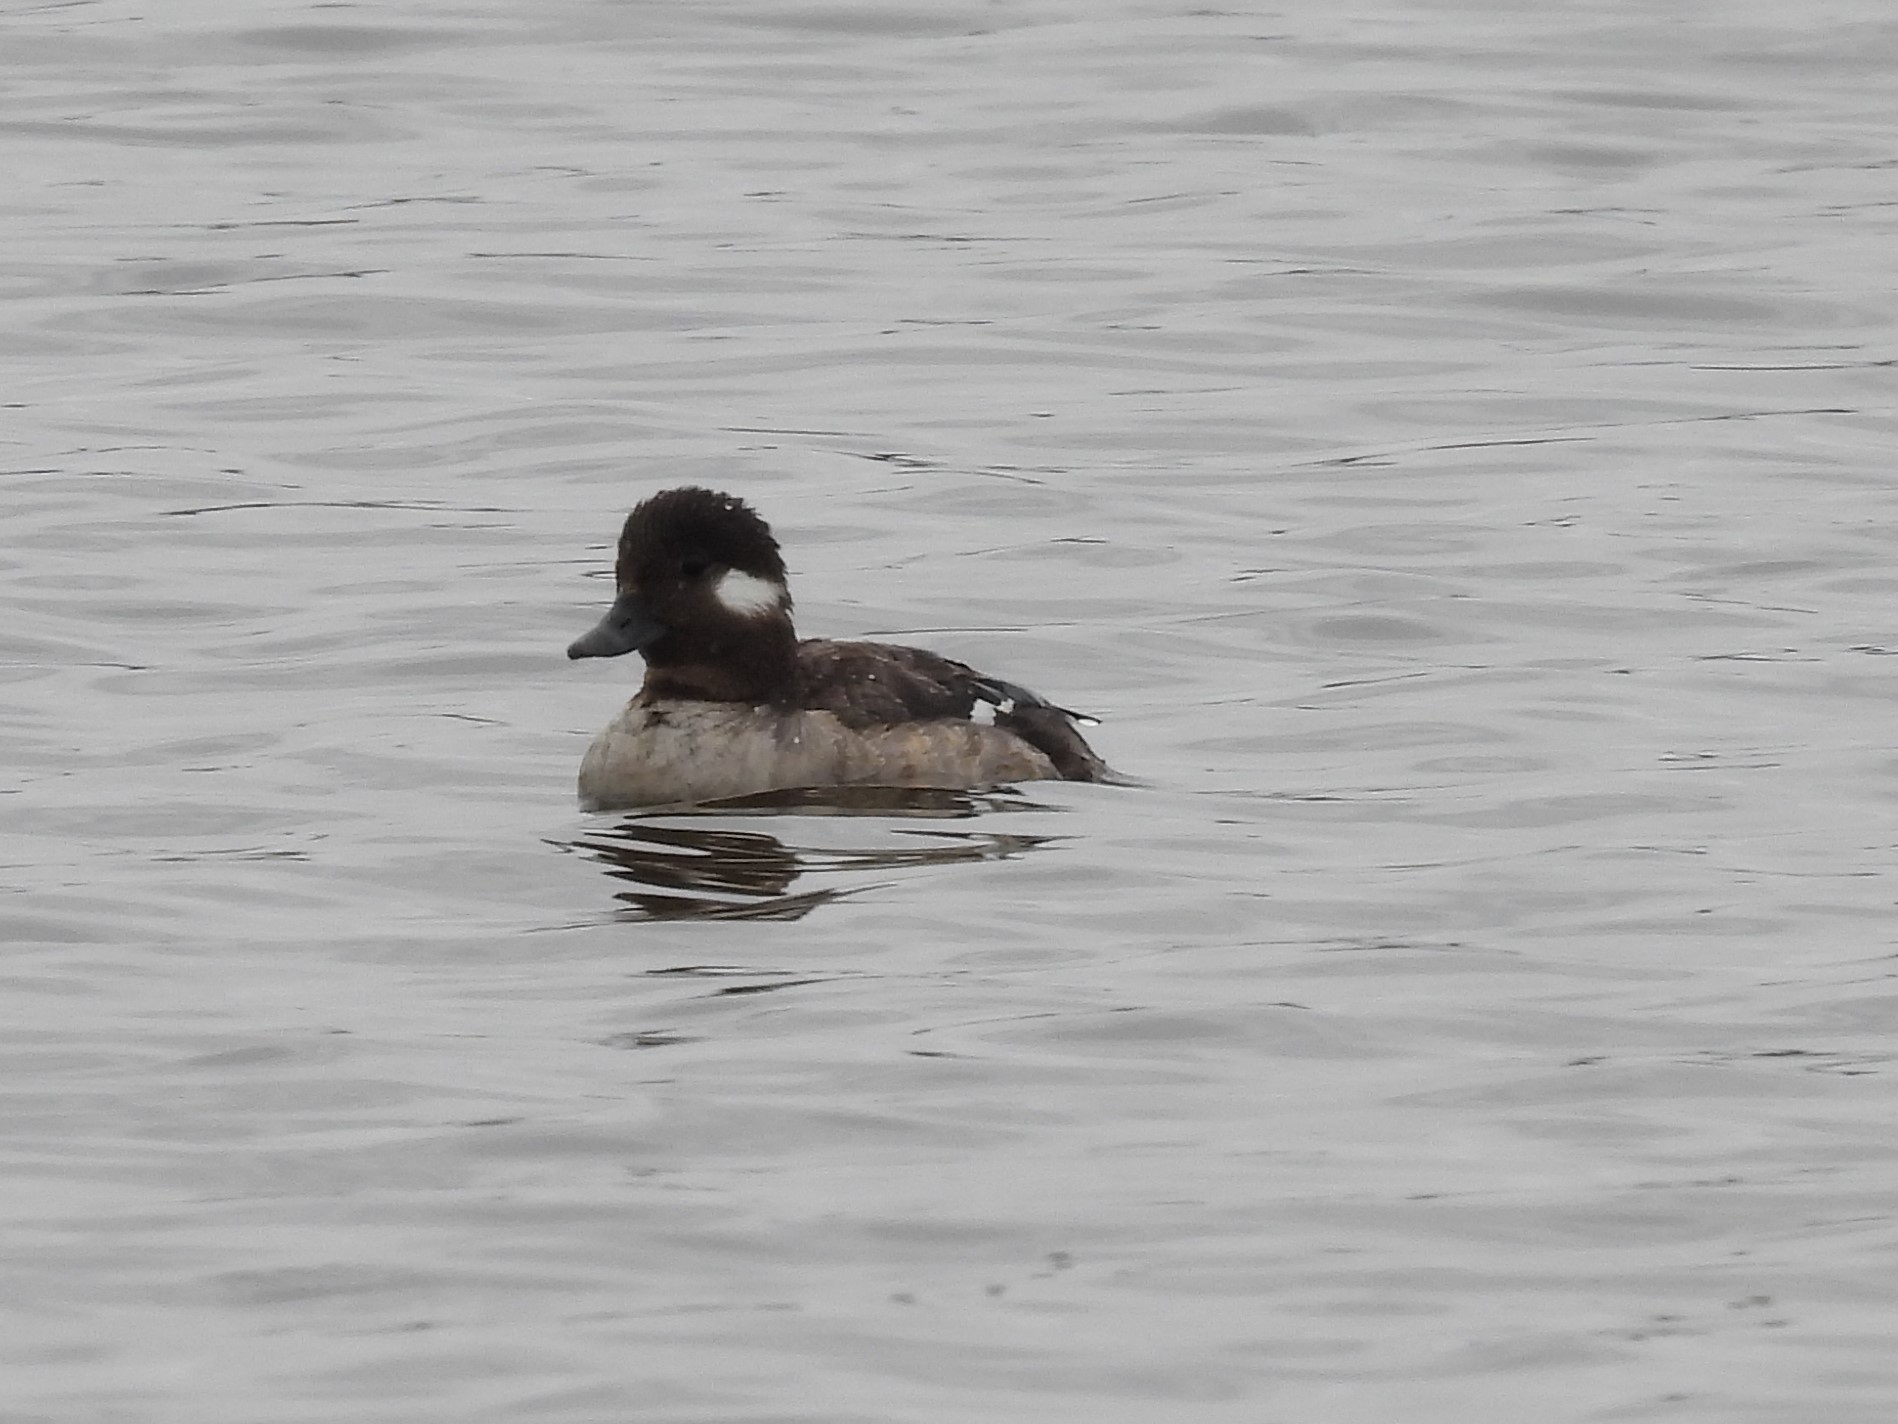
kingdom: Animalia
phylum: Chordata
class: Aves
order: Anseriformes
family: Anatidae
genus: Bucephala
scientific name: Bucephala albeola
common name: Bufflehead
